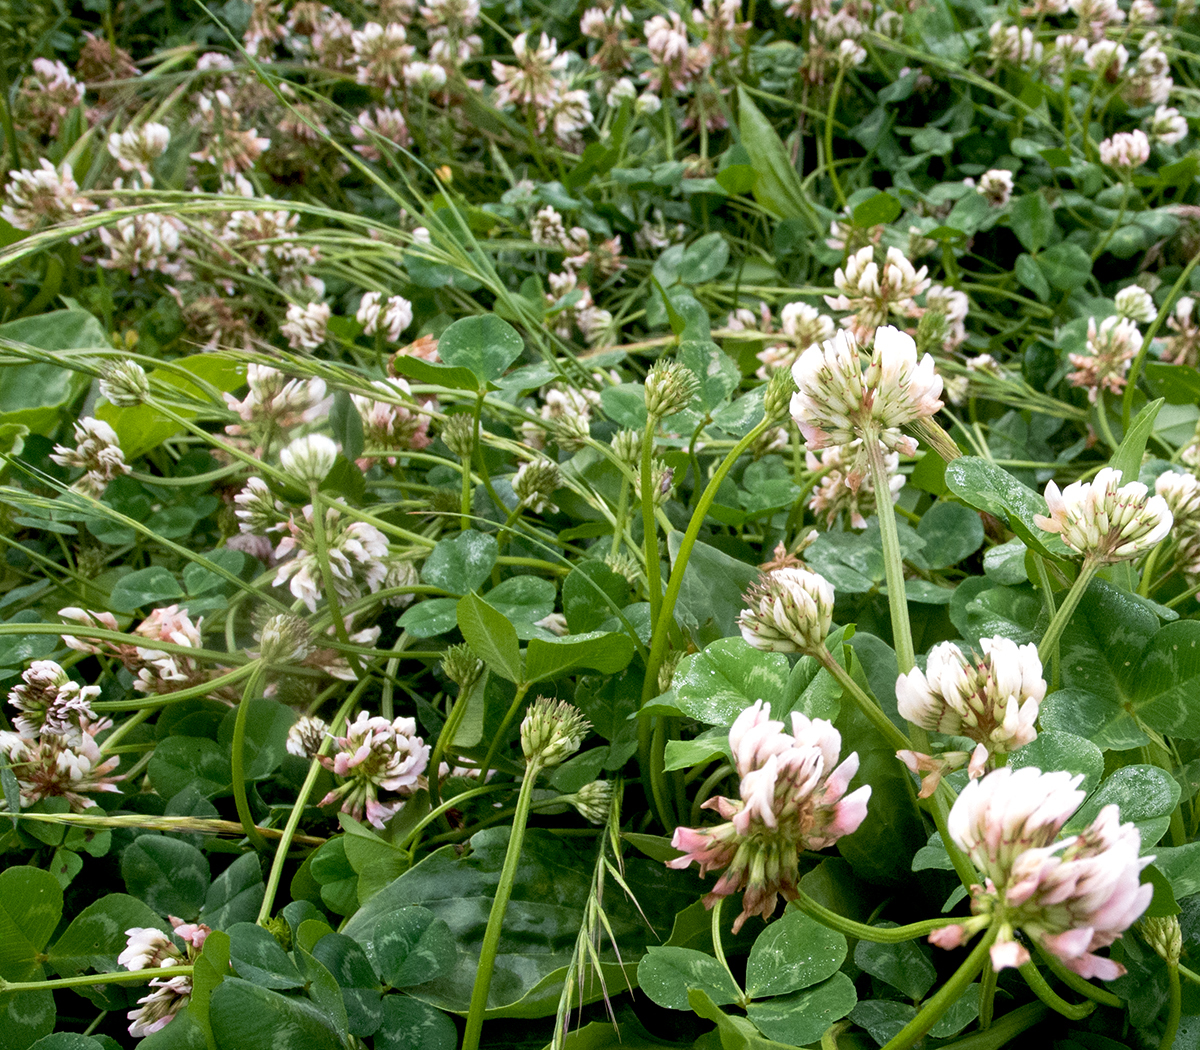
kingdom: Plantae
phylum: Tracheophyta
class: Magnoliopsida
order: Fabales
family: Fabaceae
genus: Trifolium
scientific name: Trifolium repens
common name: White clover
